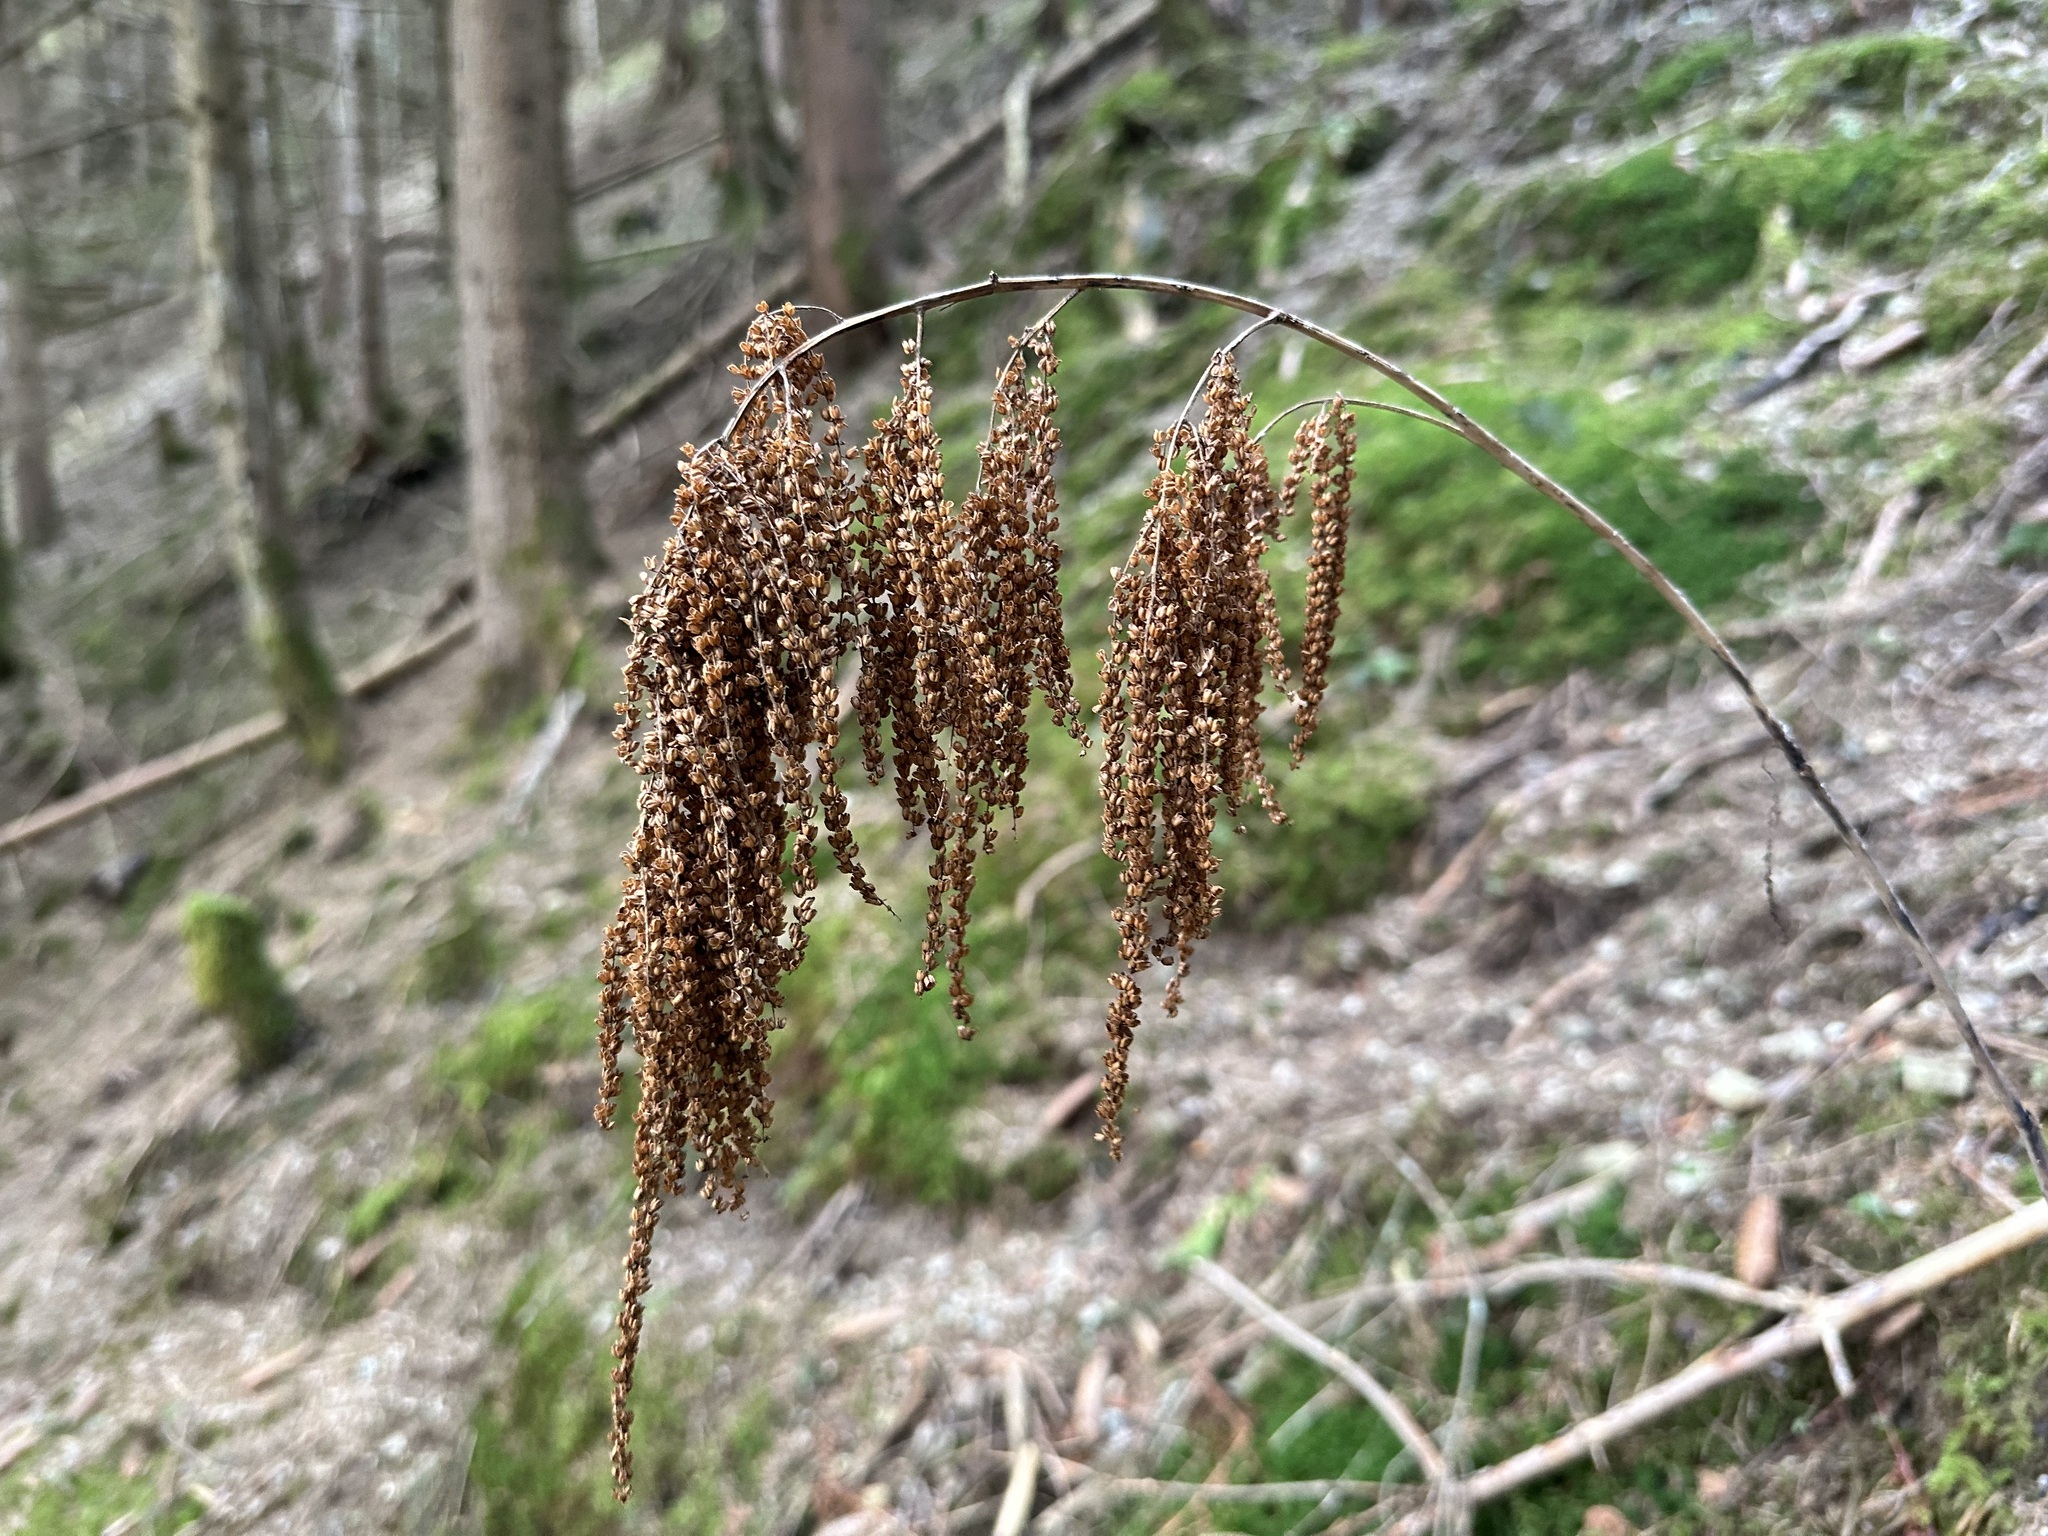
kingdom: Plantae
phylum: Tracheophyta
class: Magnoliopsida
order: Rosales
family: Rosaceae
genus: Aruncus
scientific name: Aruncus dioicus
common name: Buck's-beard
